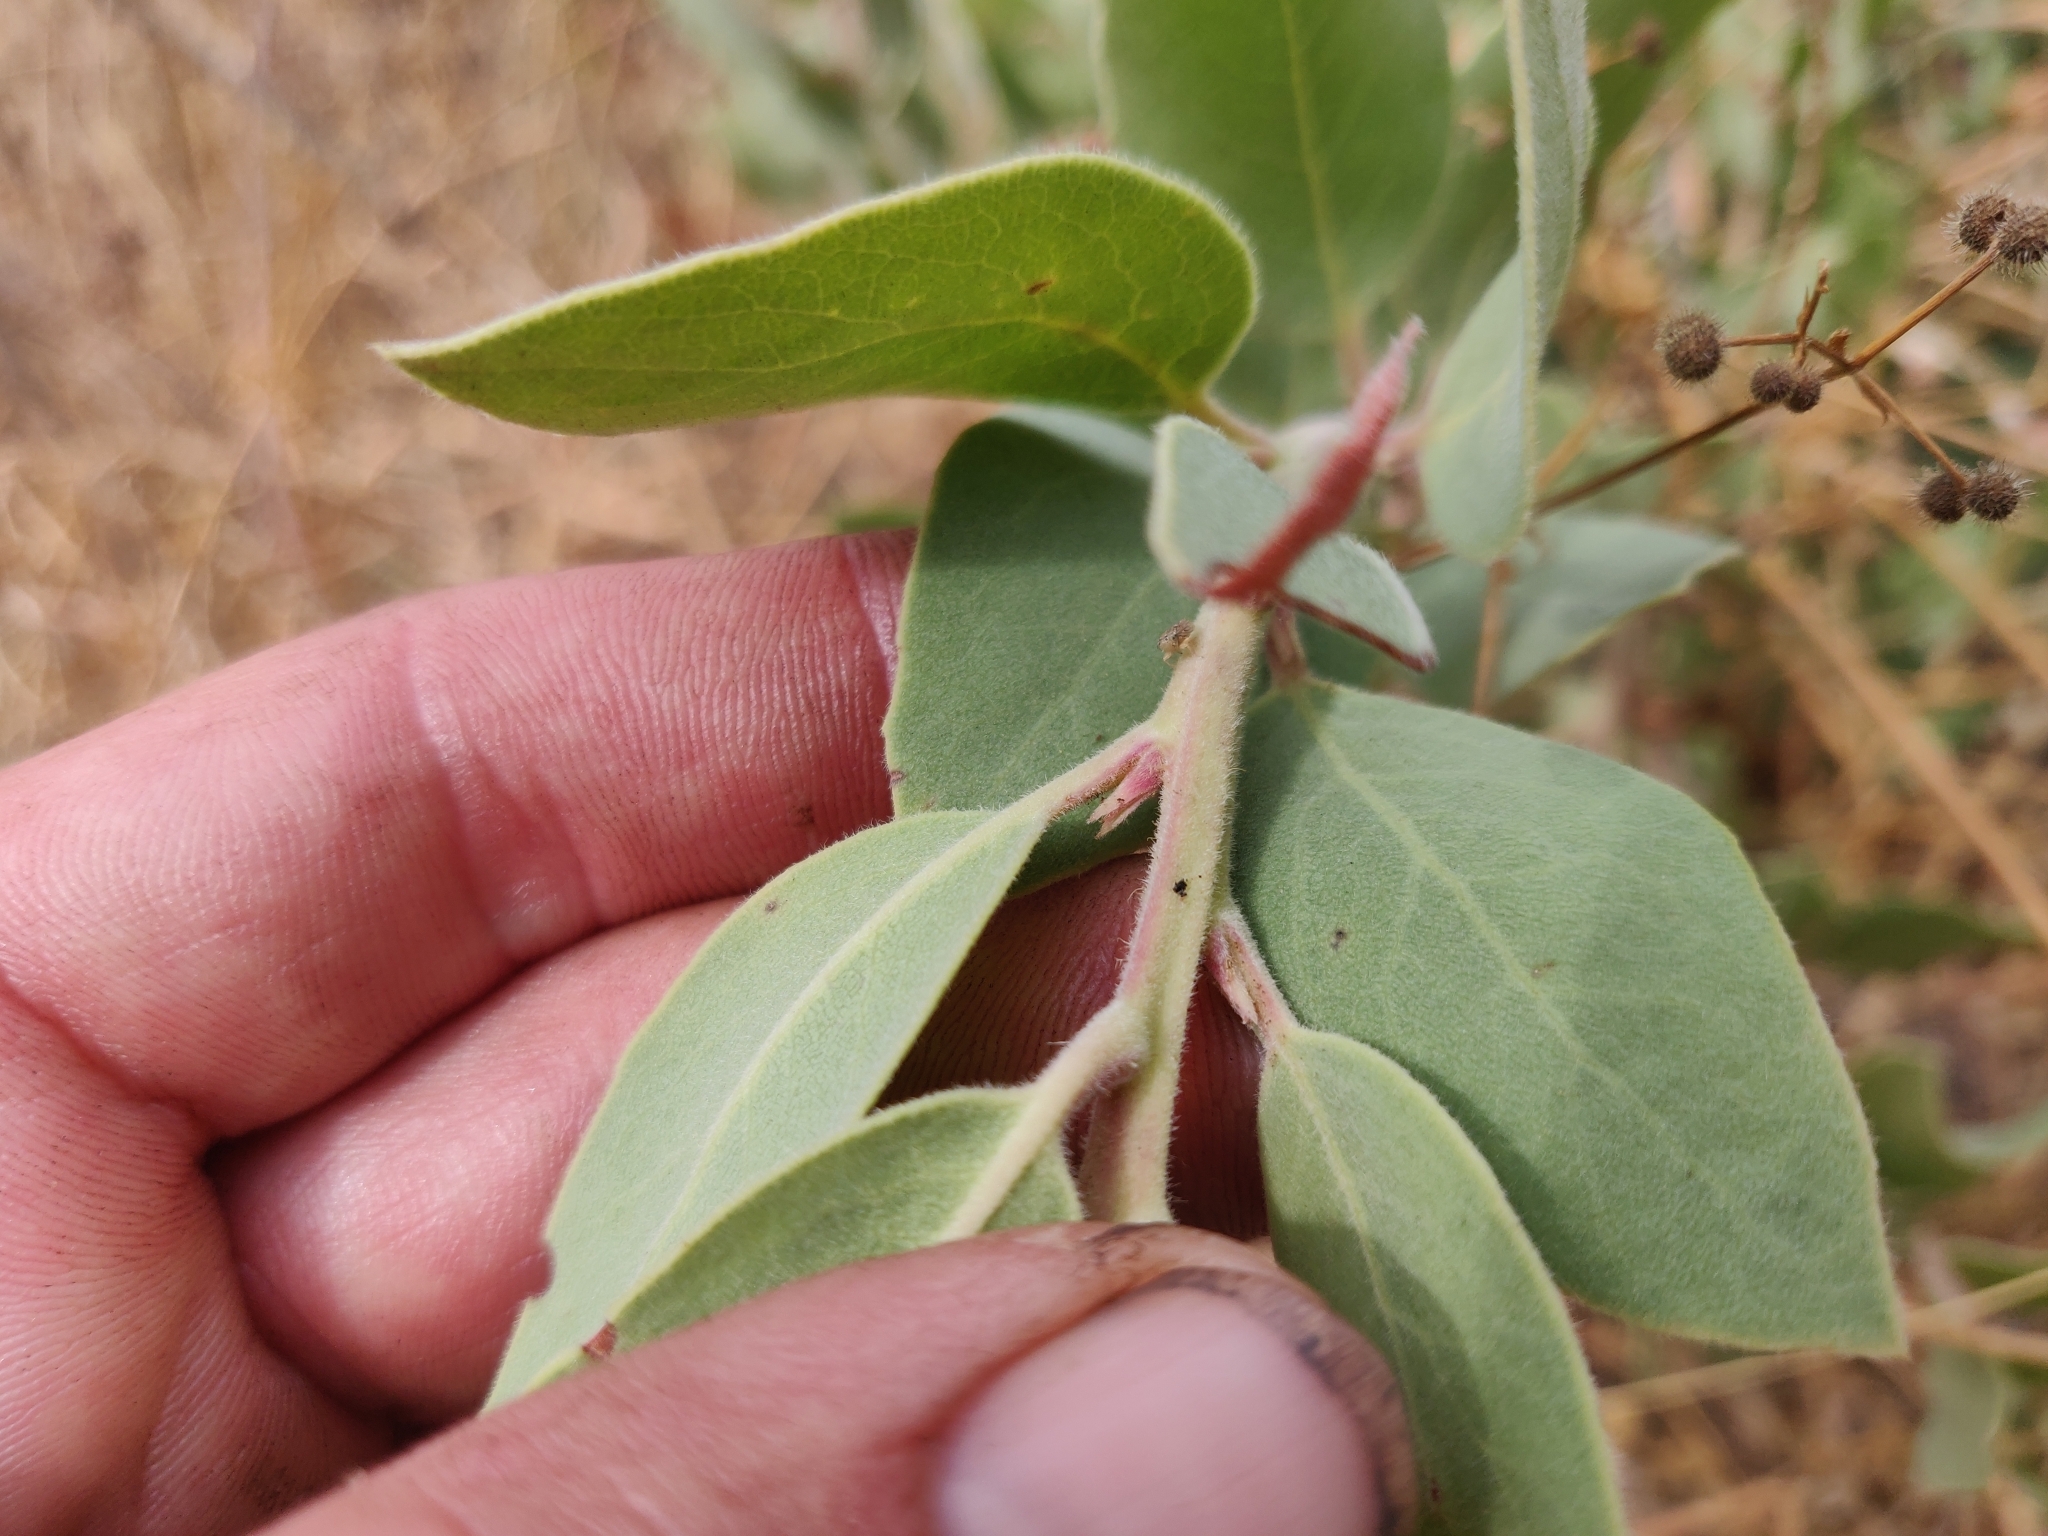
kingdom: Plantae
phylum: Tracheophyta
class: Magnoliopsida
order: Ericales
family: Ericaceae
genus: Arctostaphylos
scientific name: Arctostaphylos glandulosa
